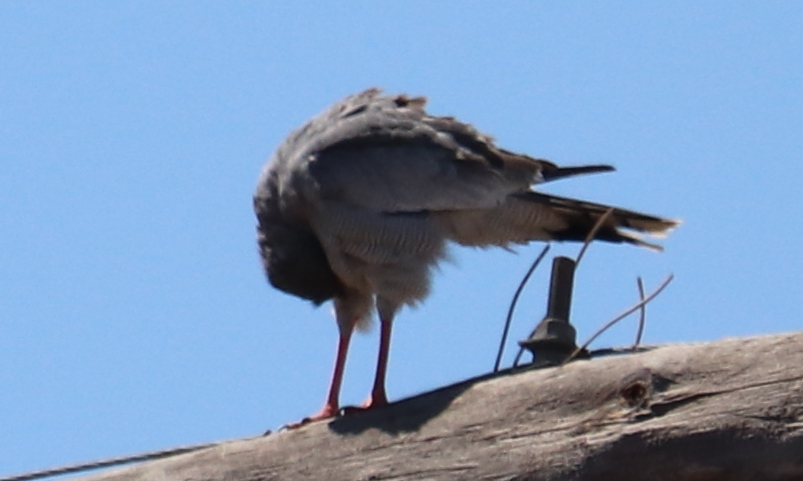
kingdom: Animalia
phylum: Chordata
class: Aves
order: Accipitriformes
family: Accipitridae
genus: Melierax
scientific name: Melierax canorus
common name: Pale chanting-goshawk
